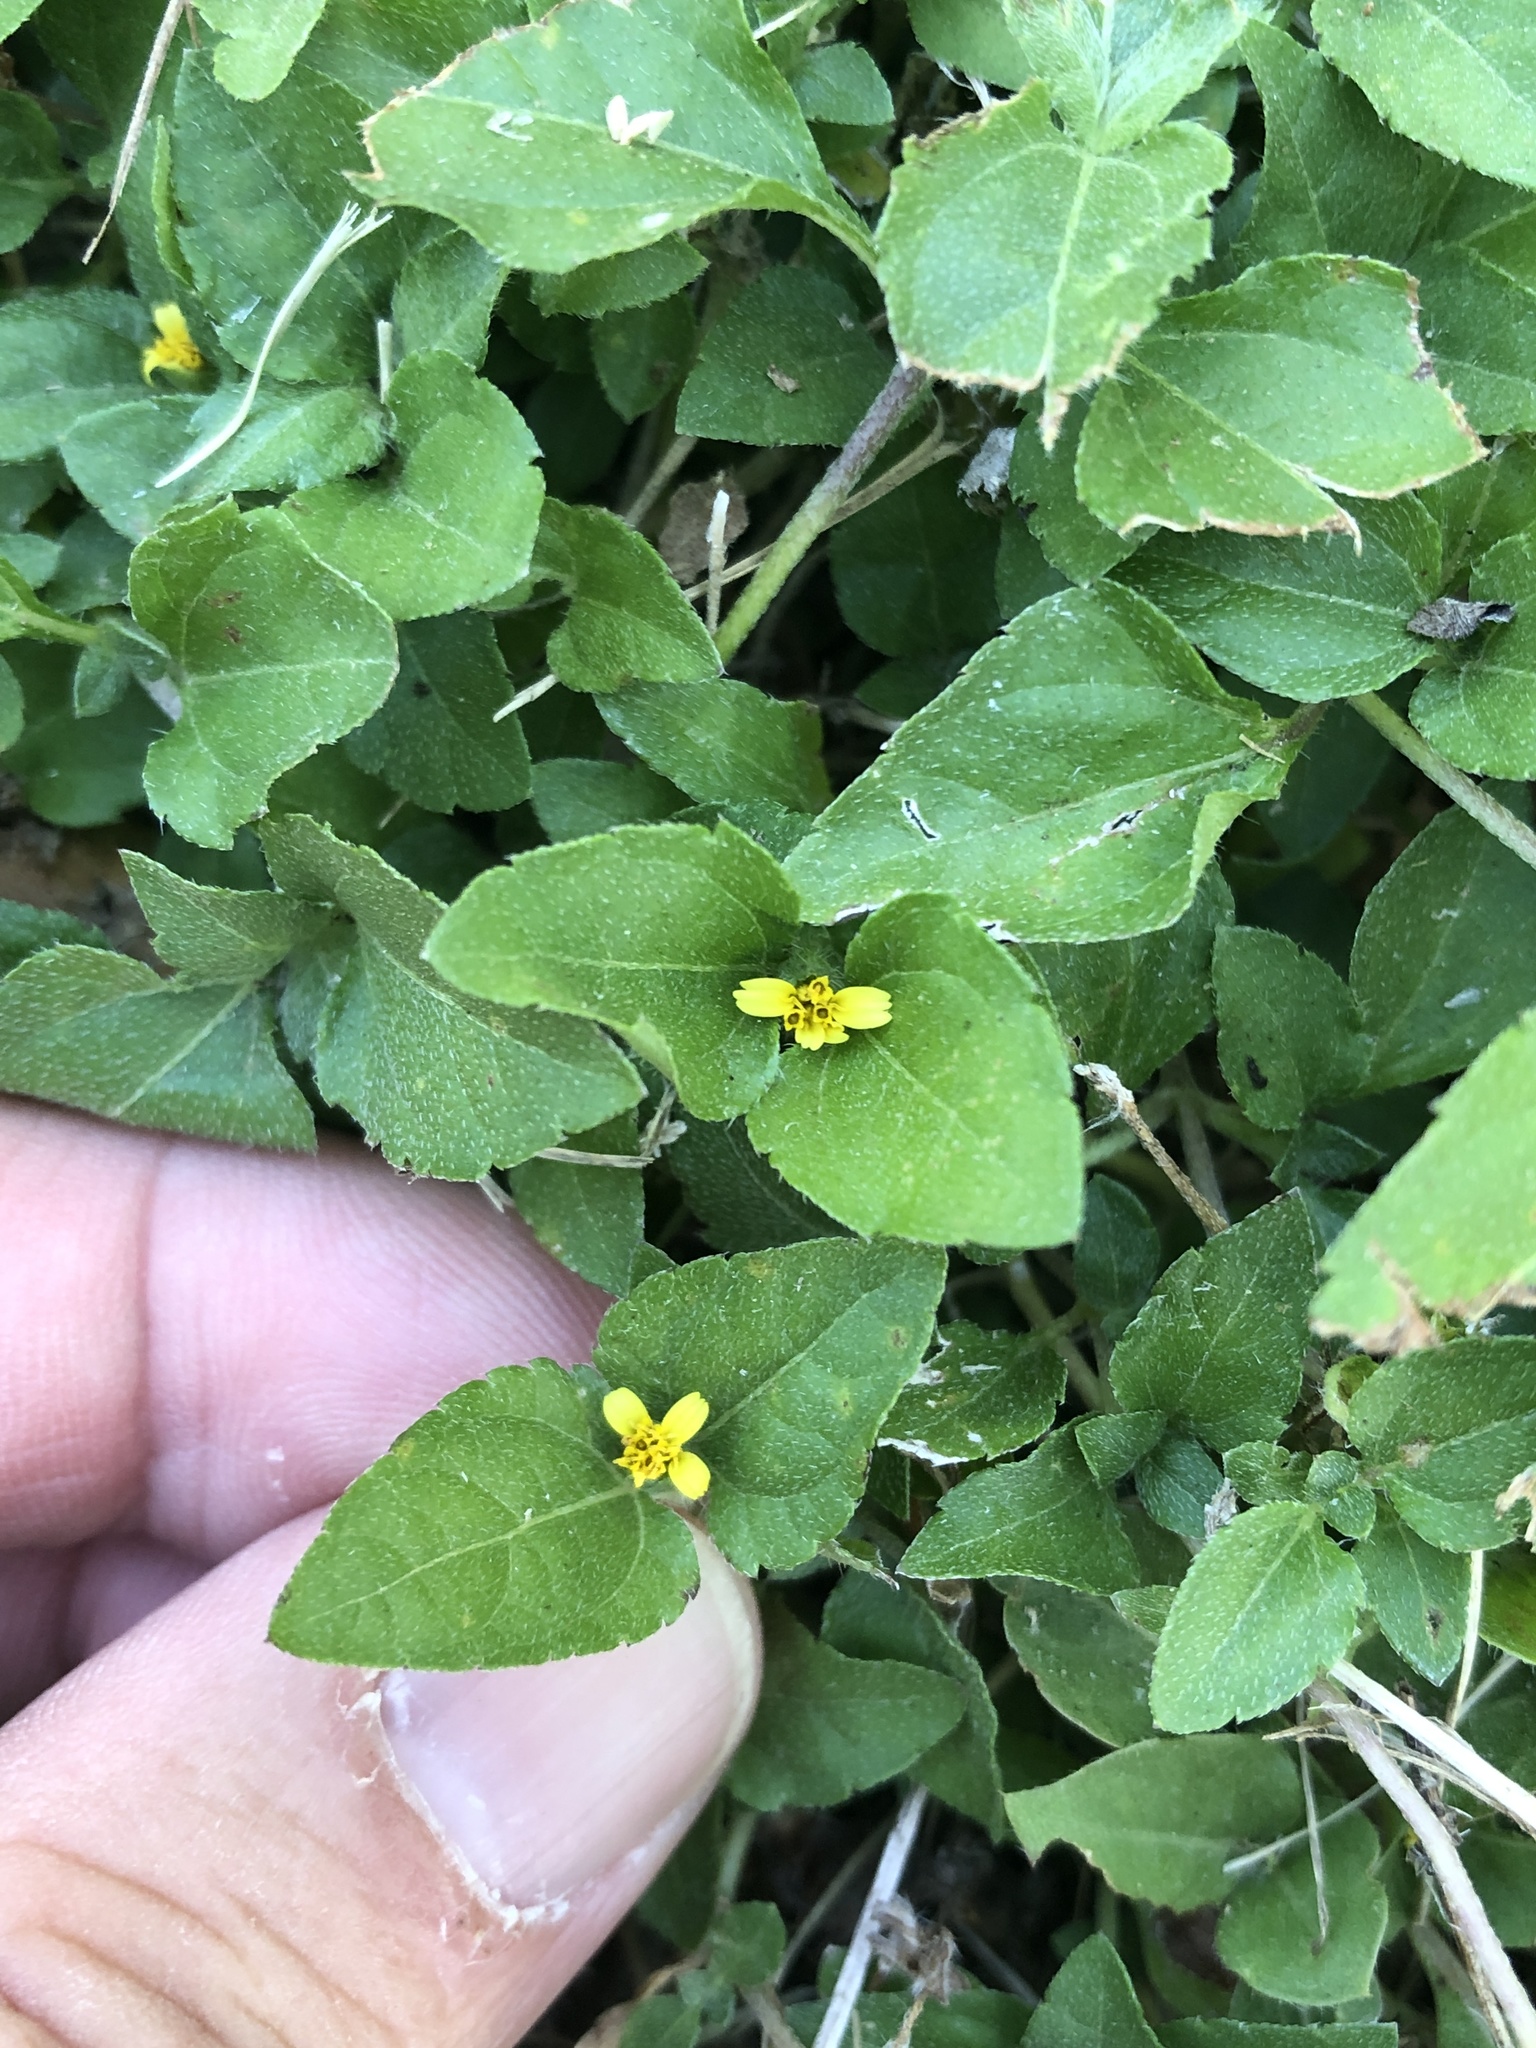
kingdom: Plantae
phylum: Tracheophyta
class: Magnoliopsida
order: Asterales
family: Asteraceae
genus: Calyptocarpus
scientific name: Calyptocarpus vialis
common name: Straggler daisy
